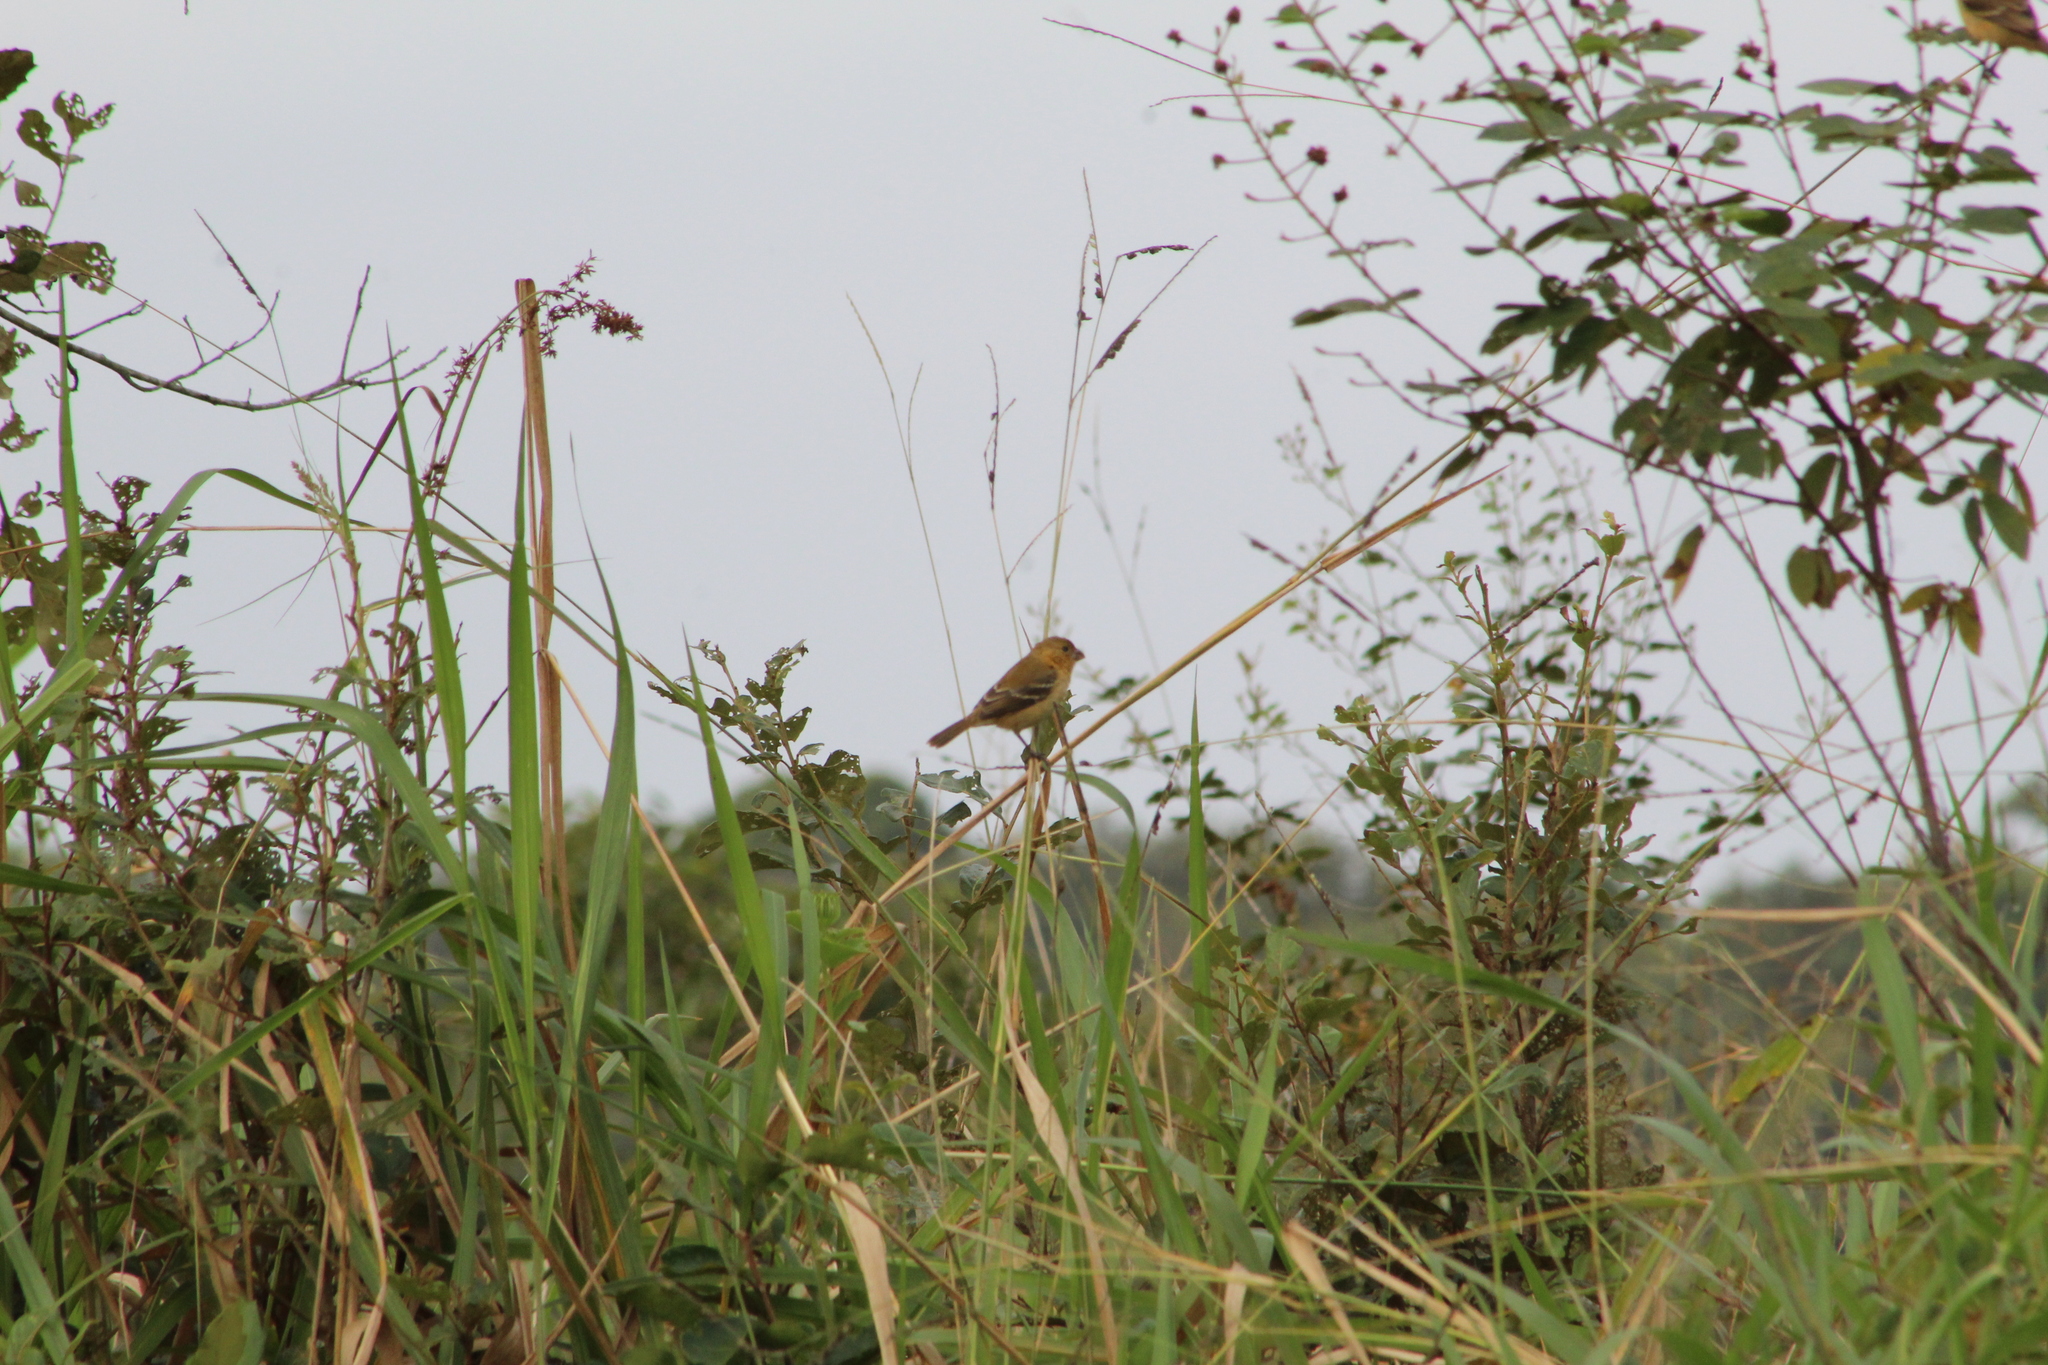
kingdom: Animalia
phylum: Chordata
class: Aves
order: Passeriformes
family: Thraupidae
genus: Sporophila
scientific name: Sporophila morelleti
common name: Morelet's seedeater
